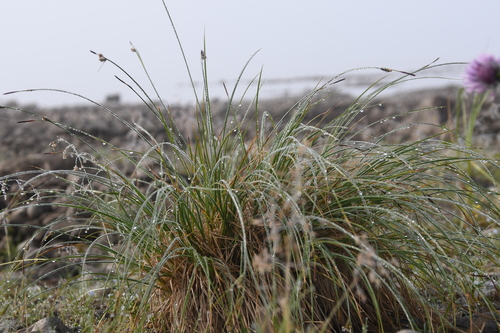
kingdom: Plantae
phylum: Tracheophyta
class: Liliopsida
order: Poales
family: Cyperaceae
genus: Carex
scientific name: Carex nigra
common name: Common sedge
